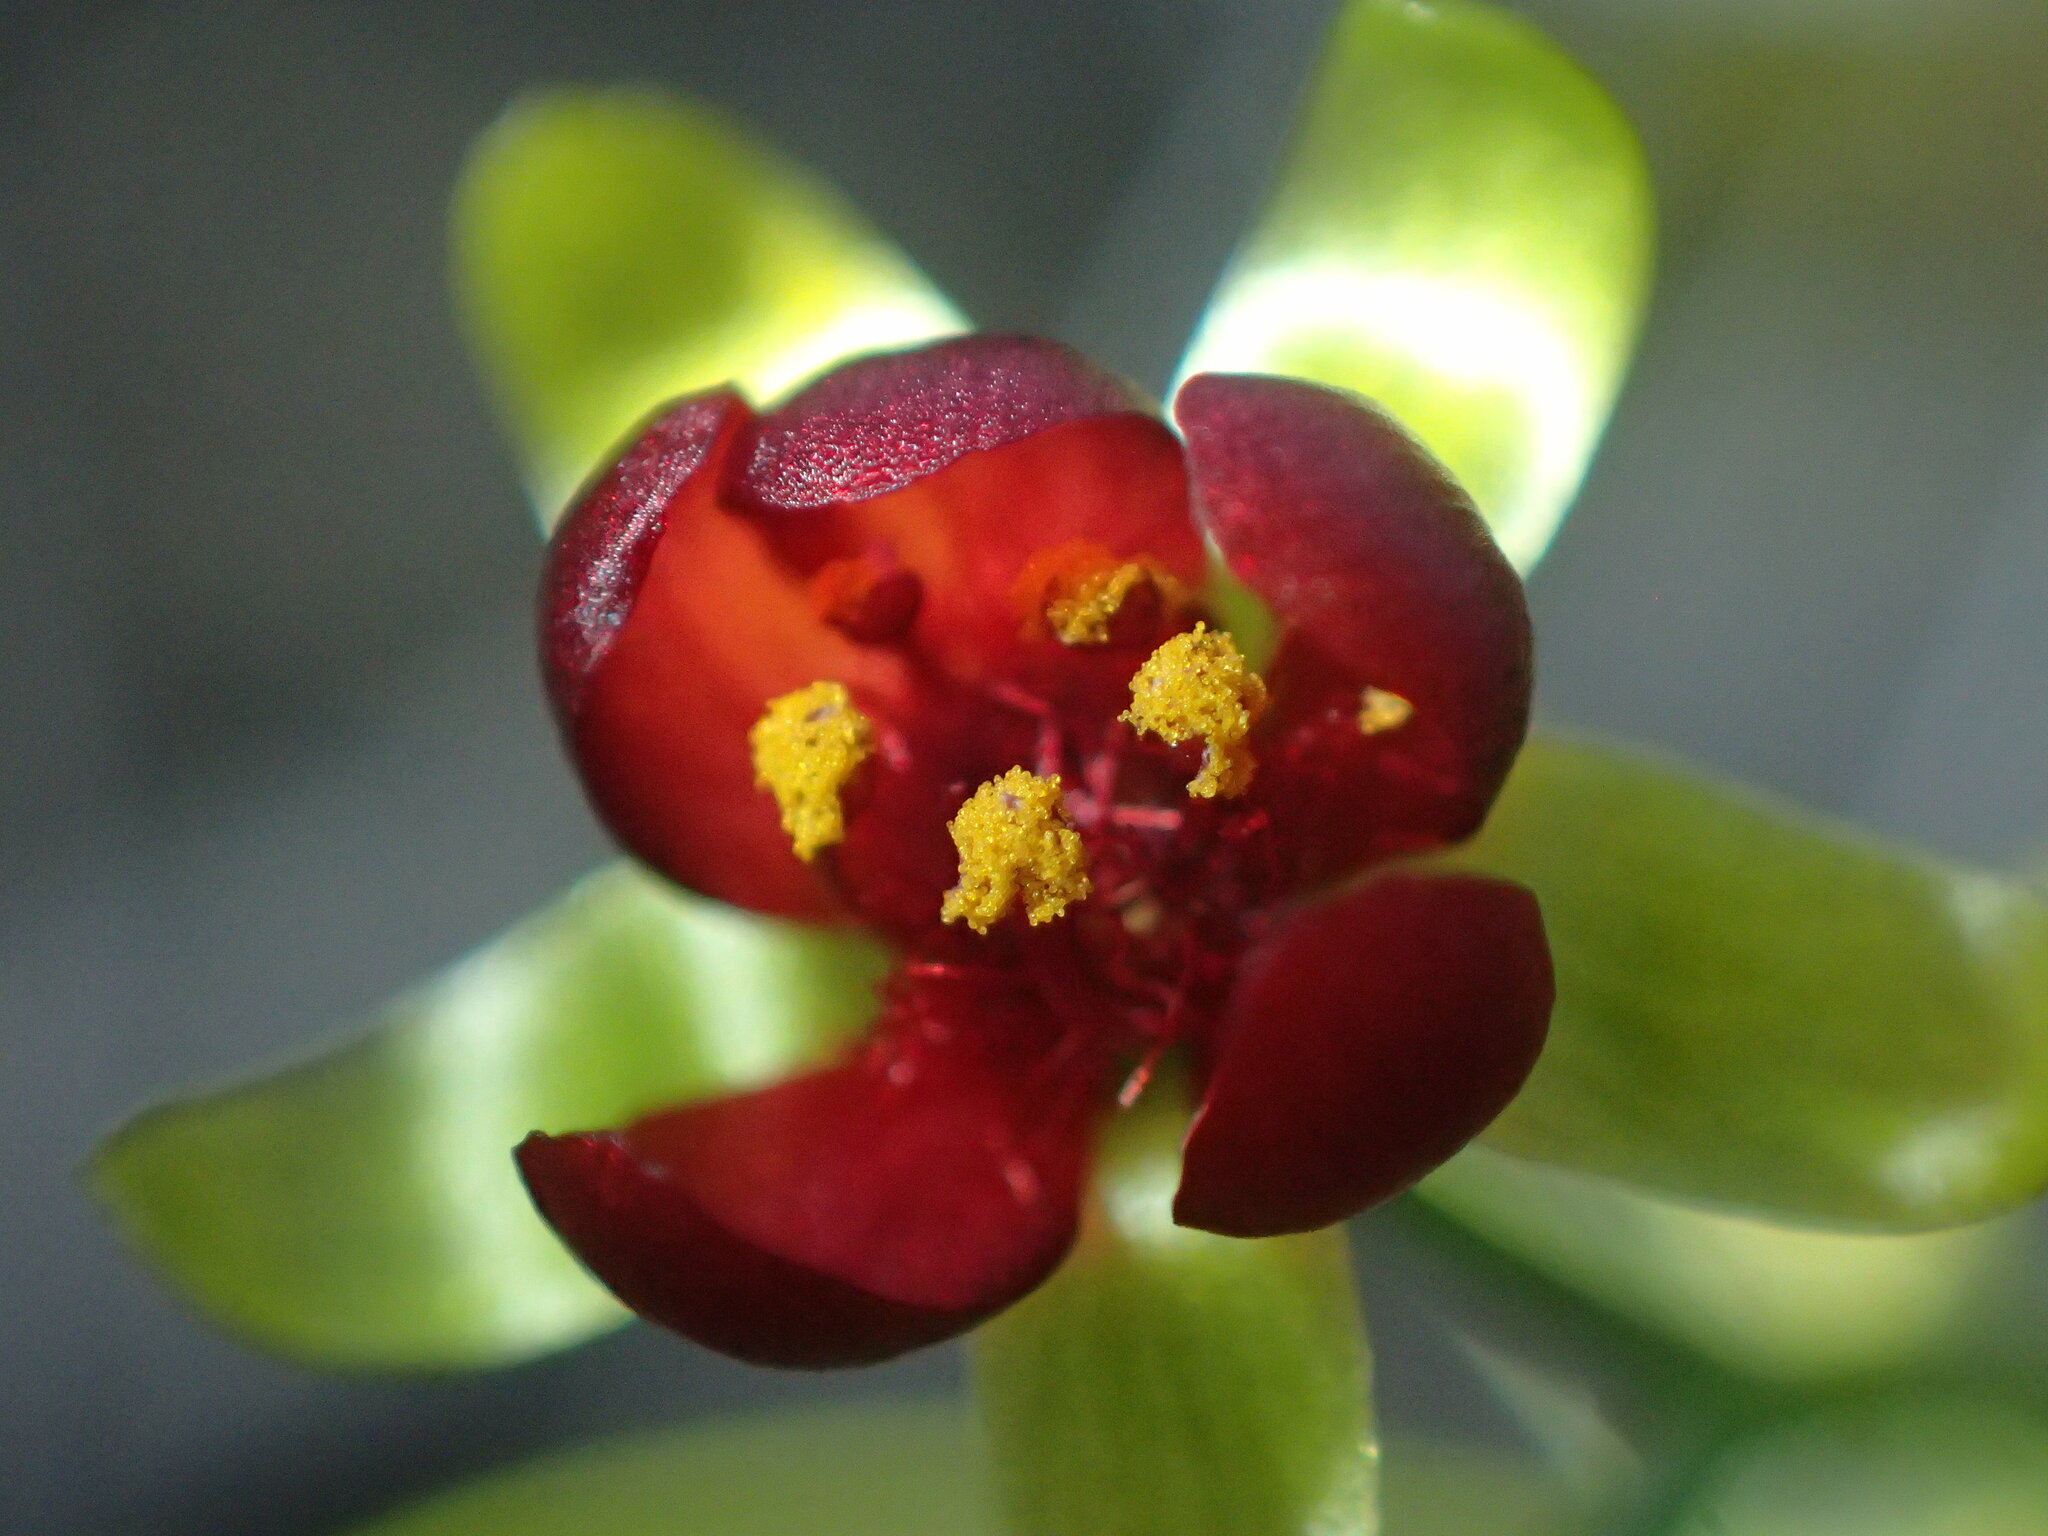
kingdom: Plantae
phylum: Tracheophyta
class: Magnoliopsida
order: Caryophyllales
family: Droseraceae
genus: Drosera
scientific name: Drosera
